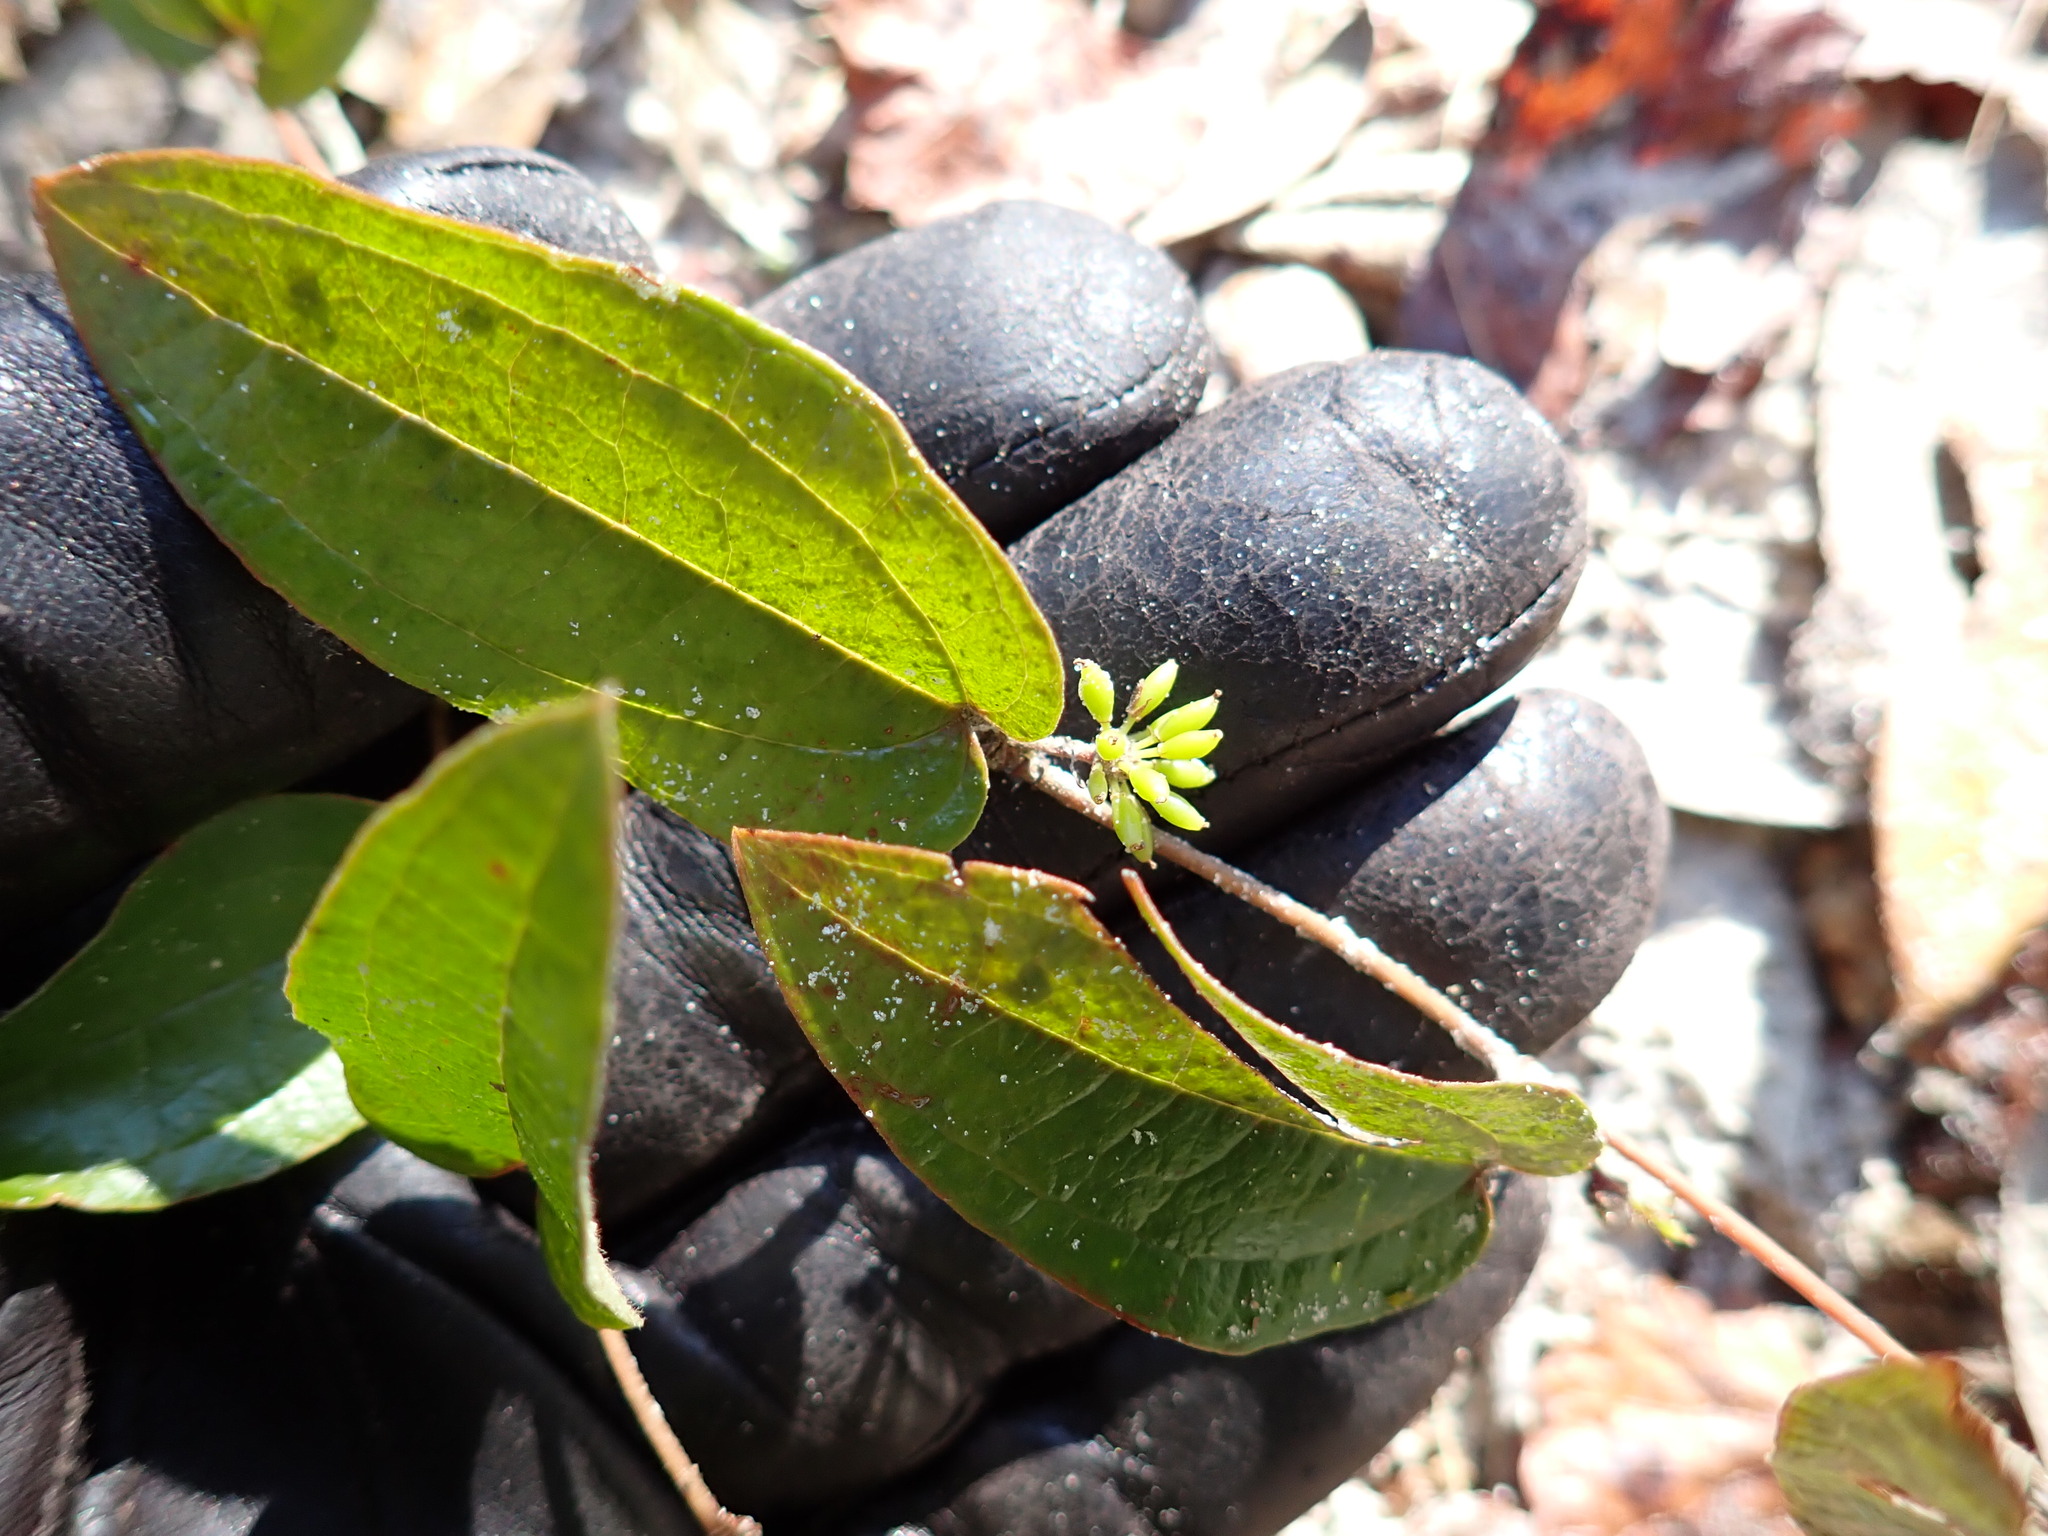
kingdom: Plantae
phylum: Tracheophyta
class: Liliopsida
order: Liliales
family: Smilacaceae
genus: Smilax
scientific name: Smilax pumila
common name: Sarsaparilla-vine
